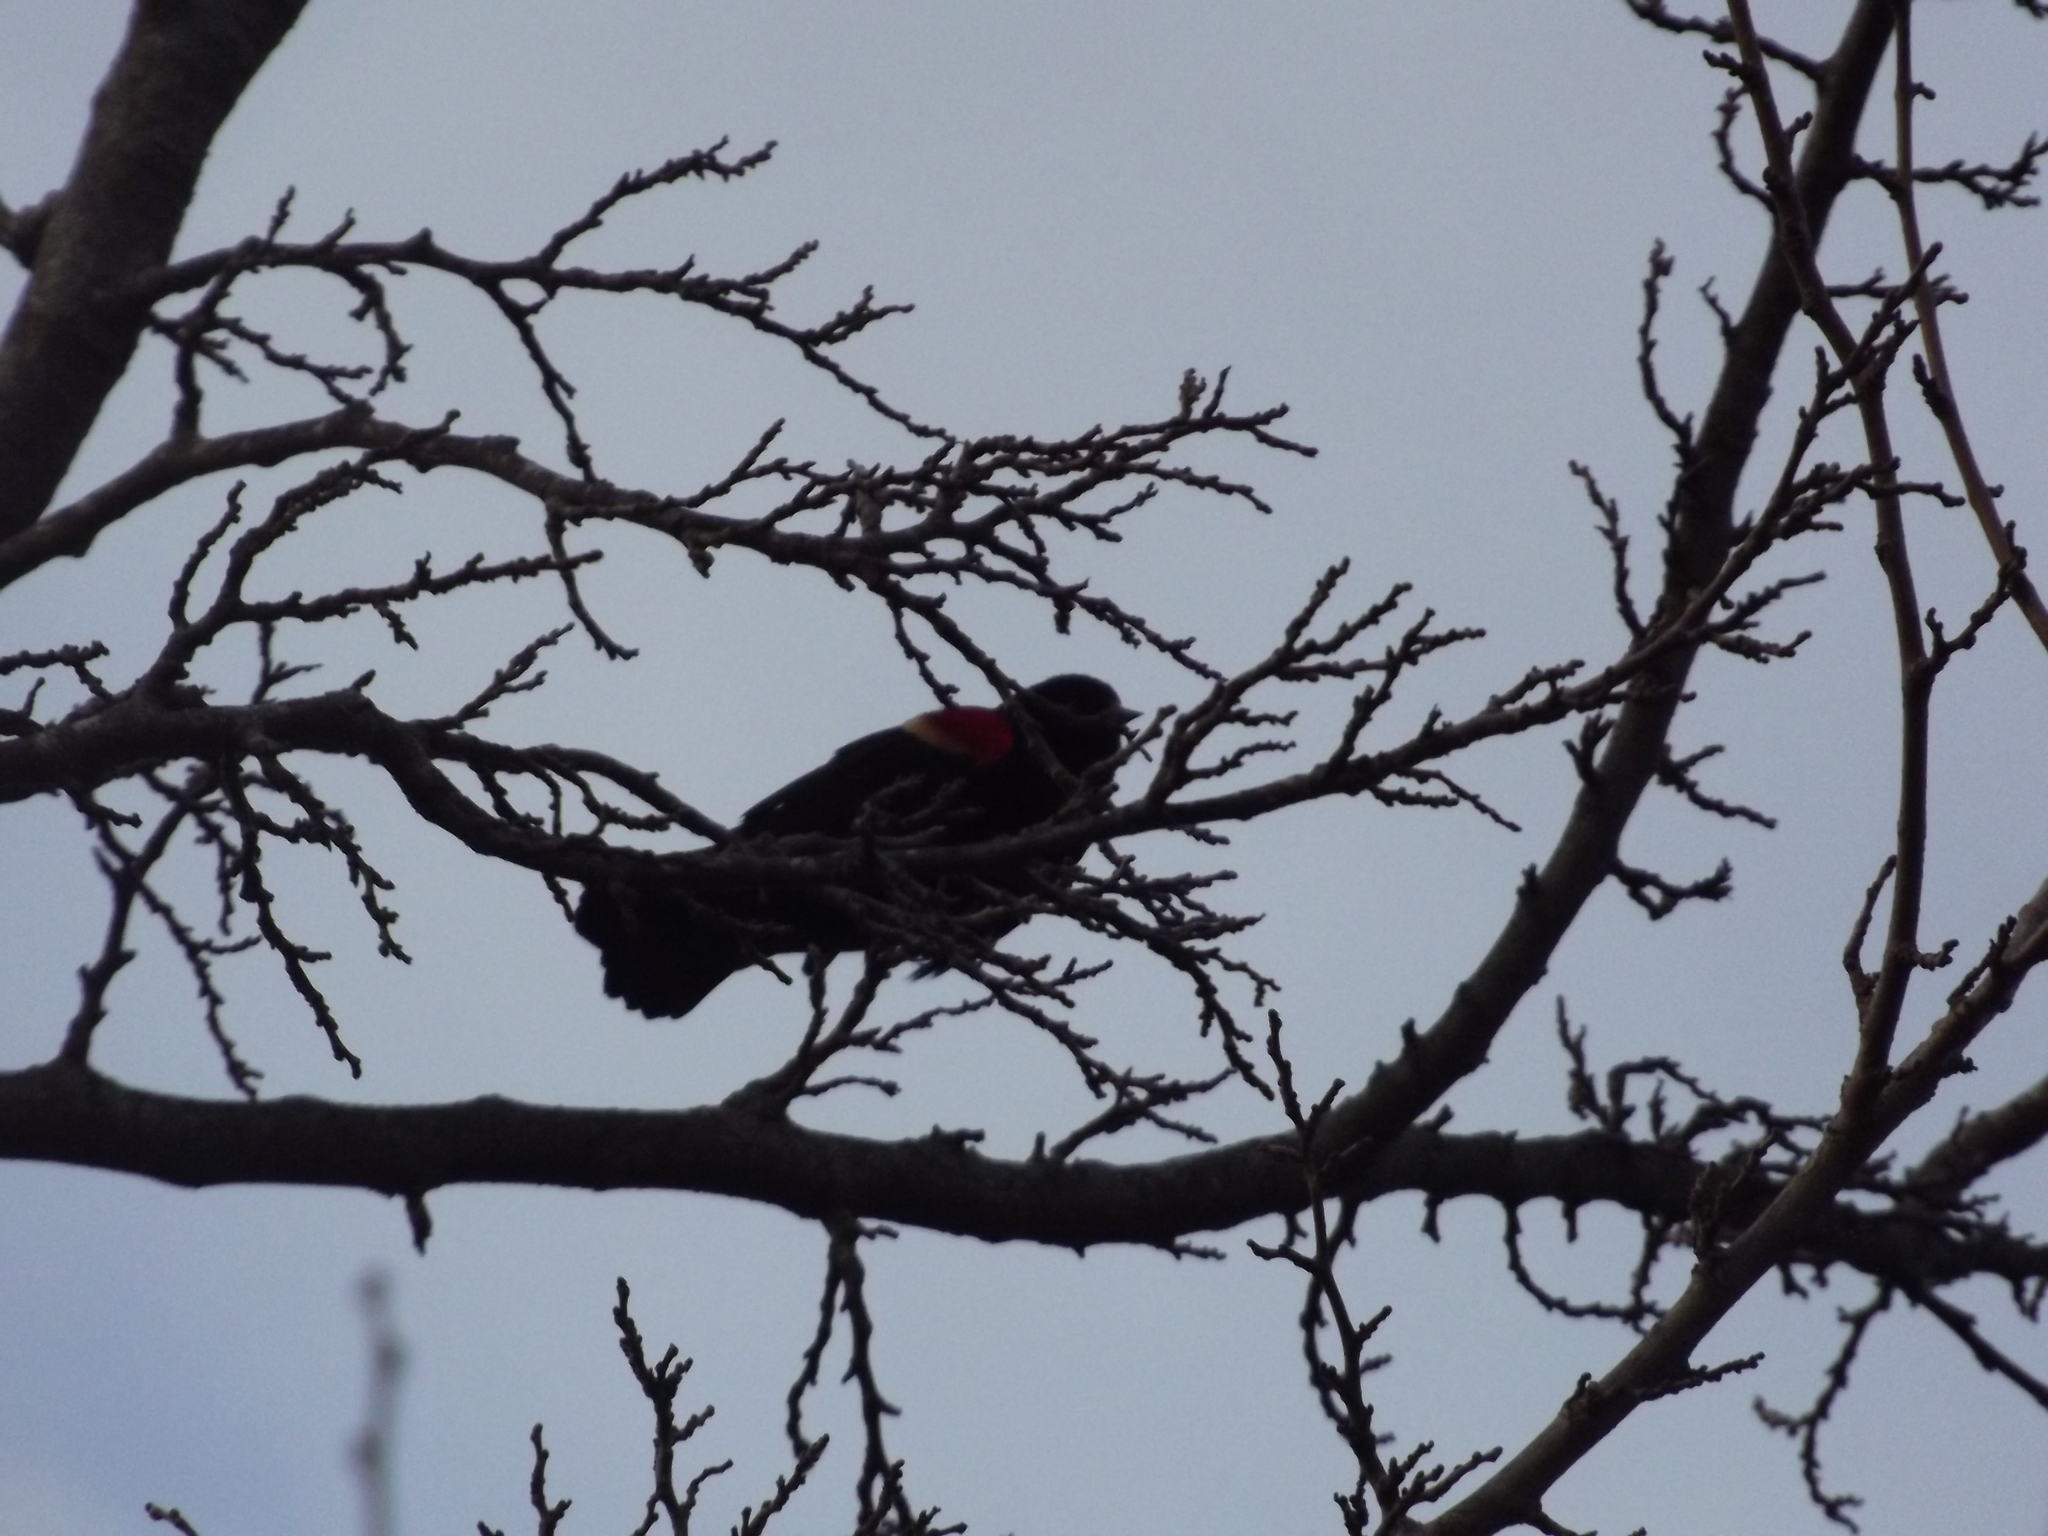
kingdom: Animalia
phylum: Chordata
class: Aves
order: Passeriformes
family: Icteridae
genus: Agelaius
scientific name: Agelaius phoeniceus
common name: Red-winged blackbird
